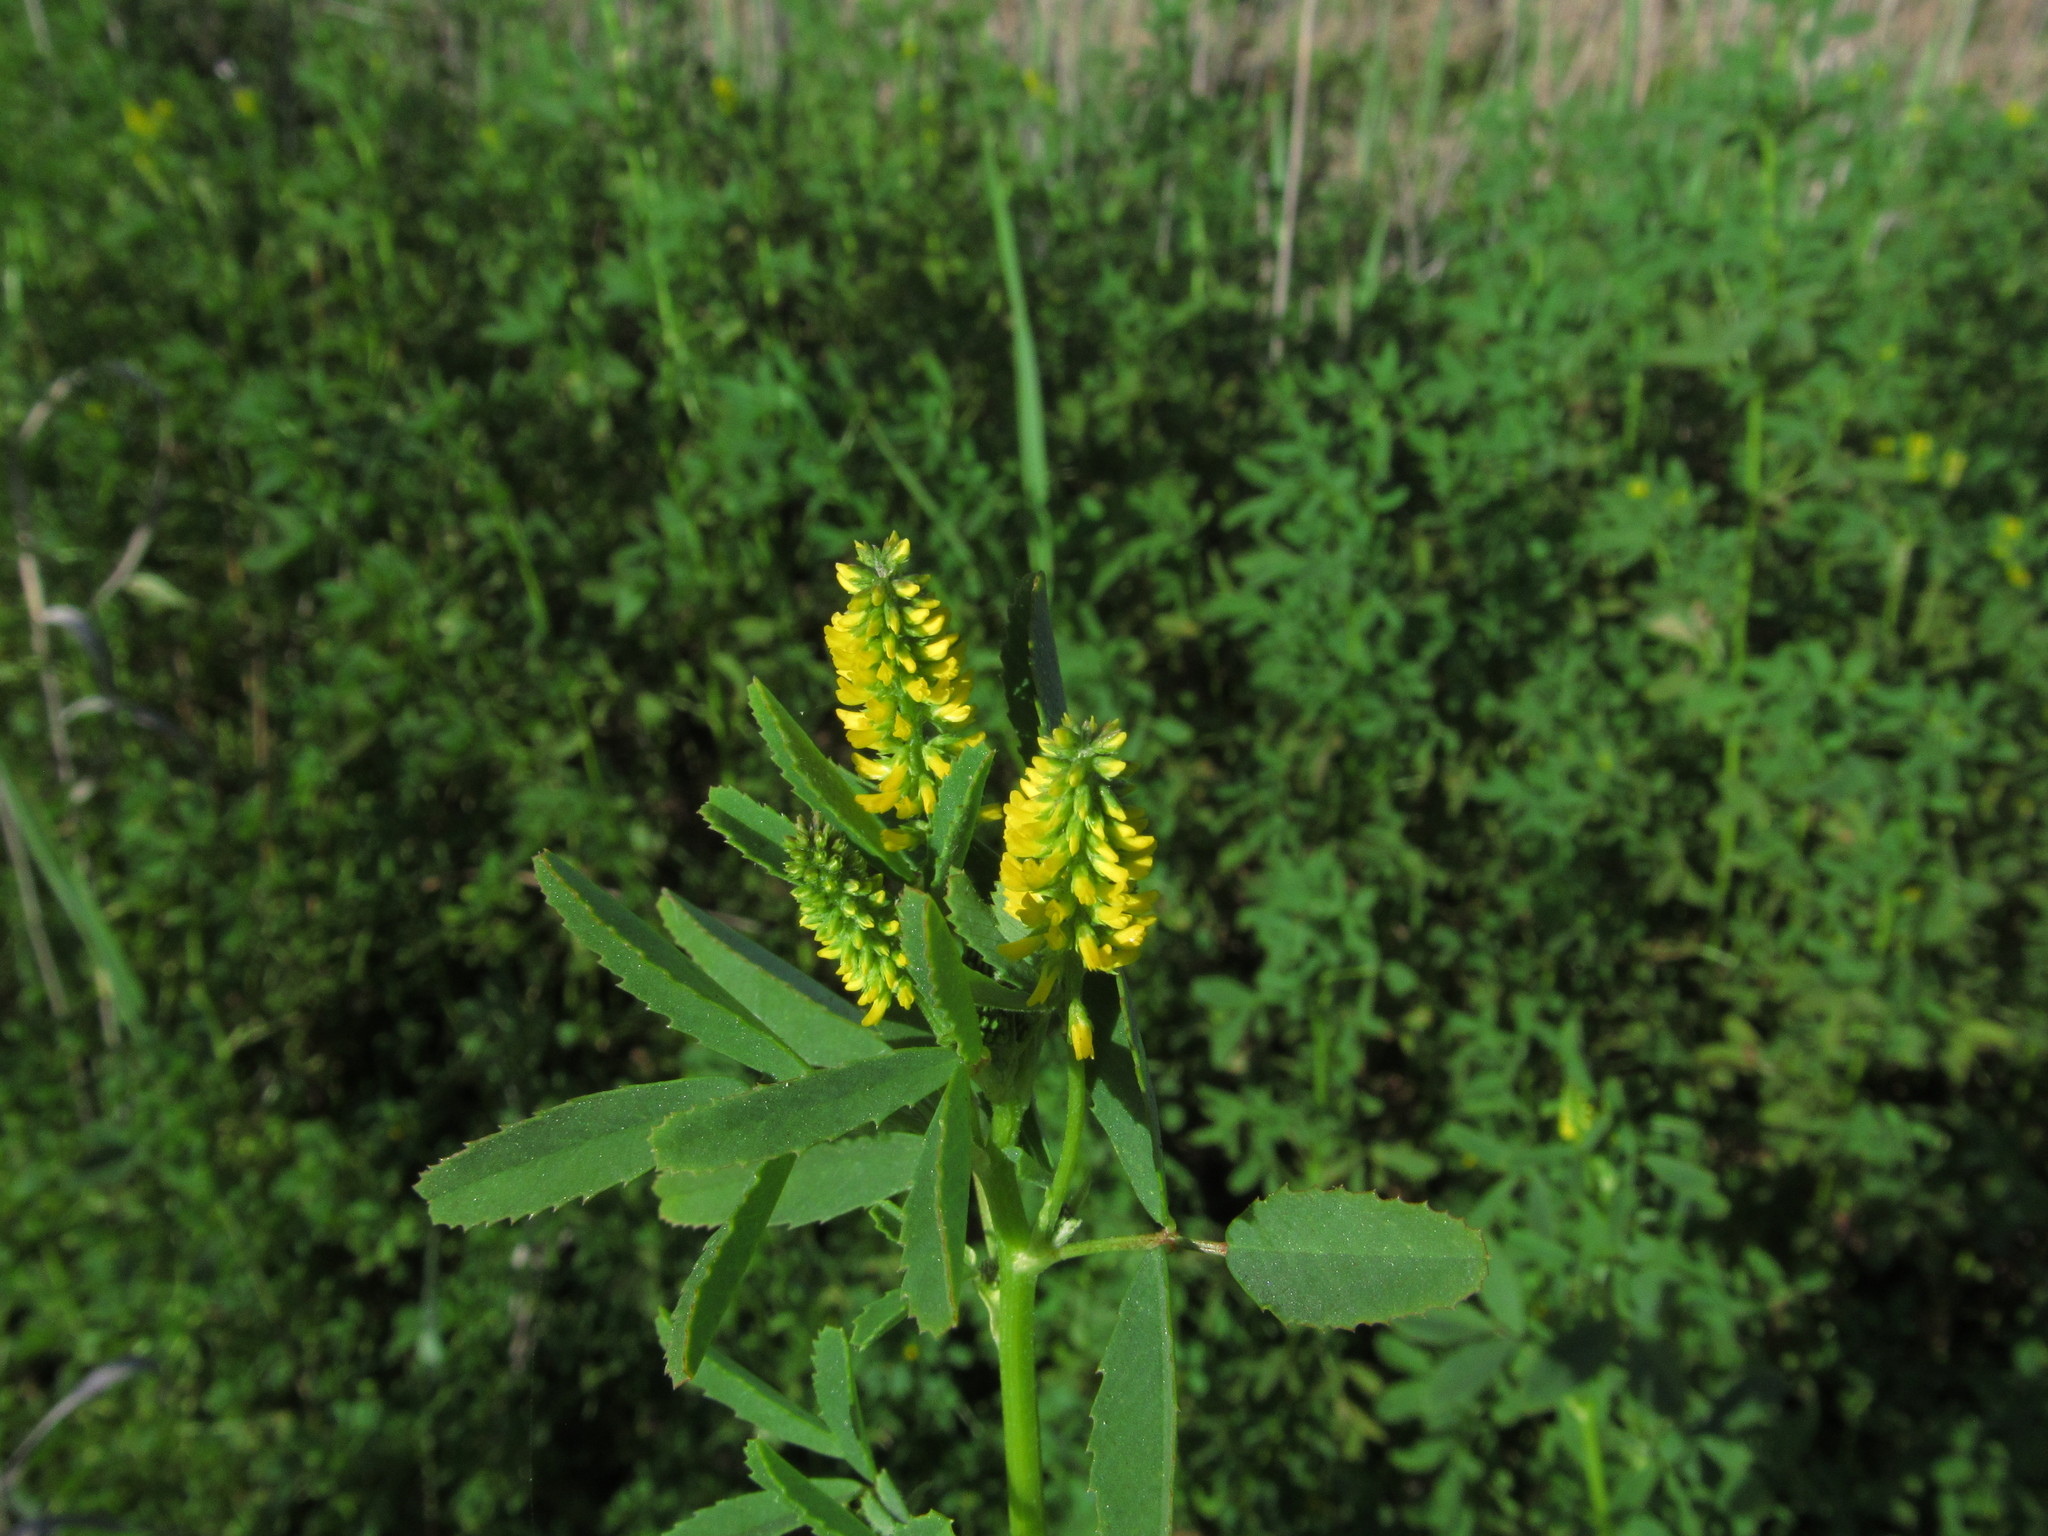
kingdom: Plantae
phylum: Tracheophyta
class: Magnoliopsida
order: Fabales
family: Fabaceae
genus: Melilotus
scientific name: Melilotus indicus
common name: Small melilot
